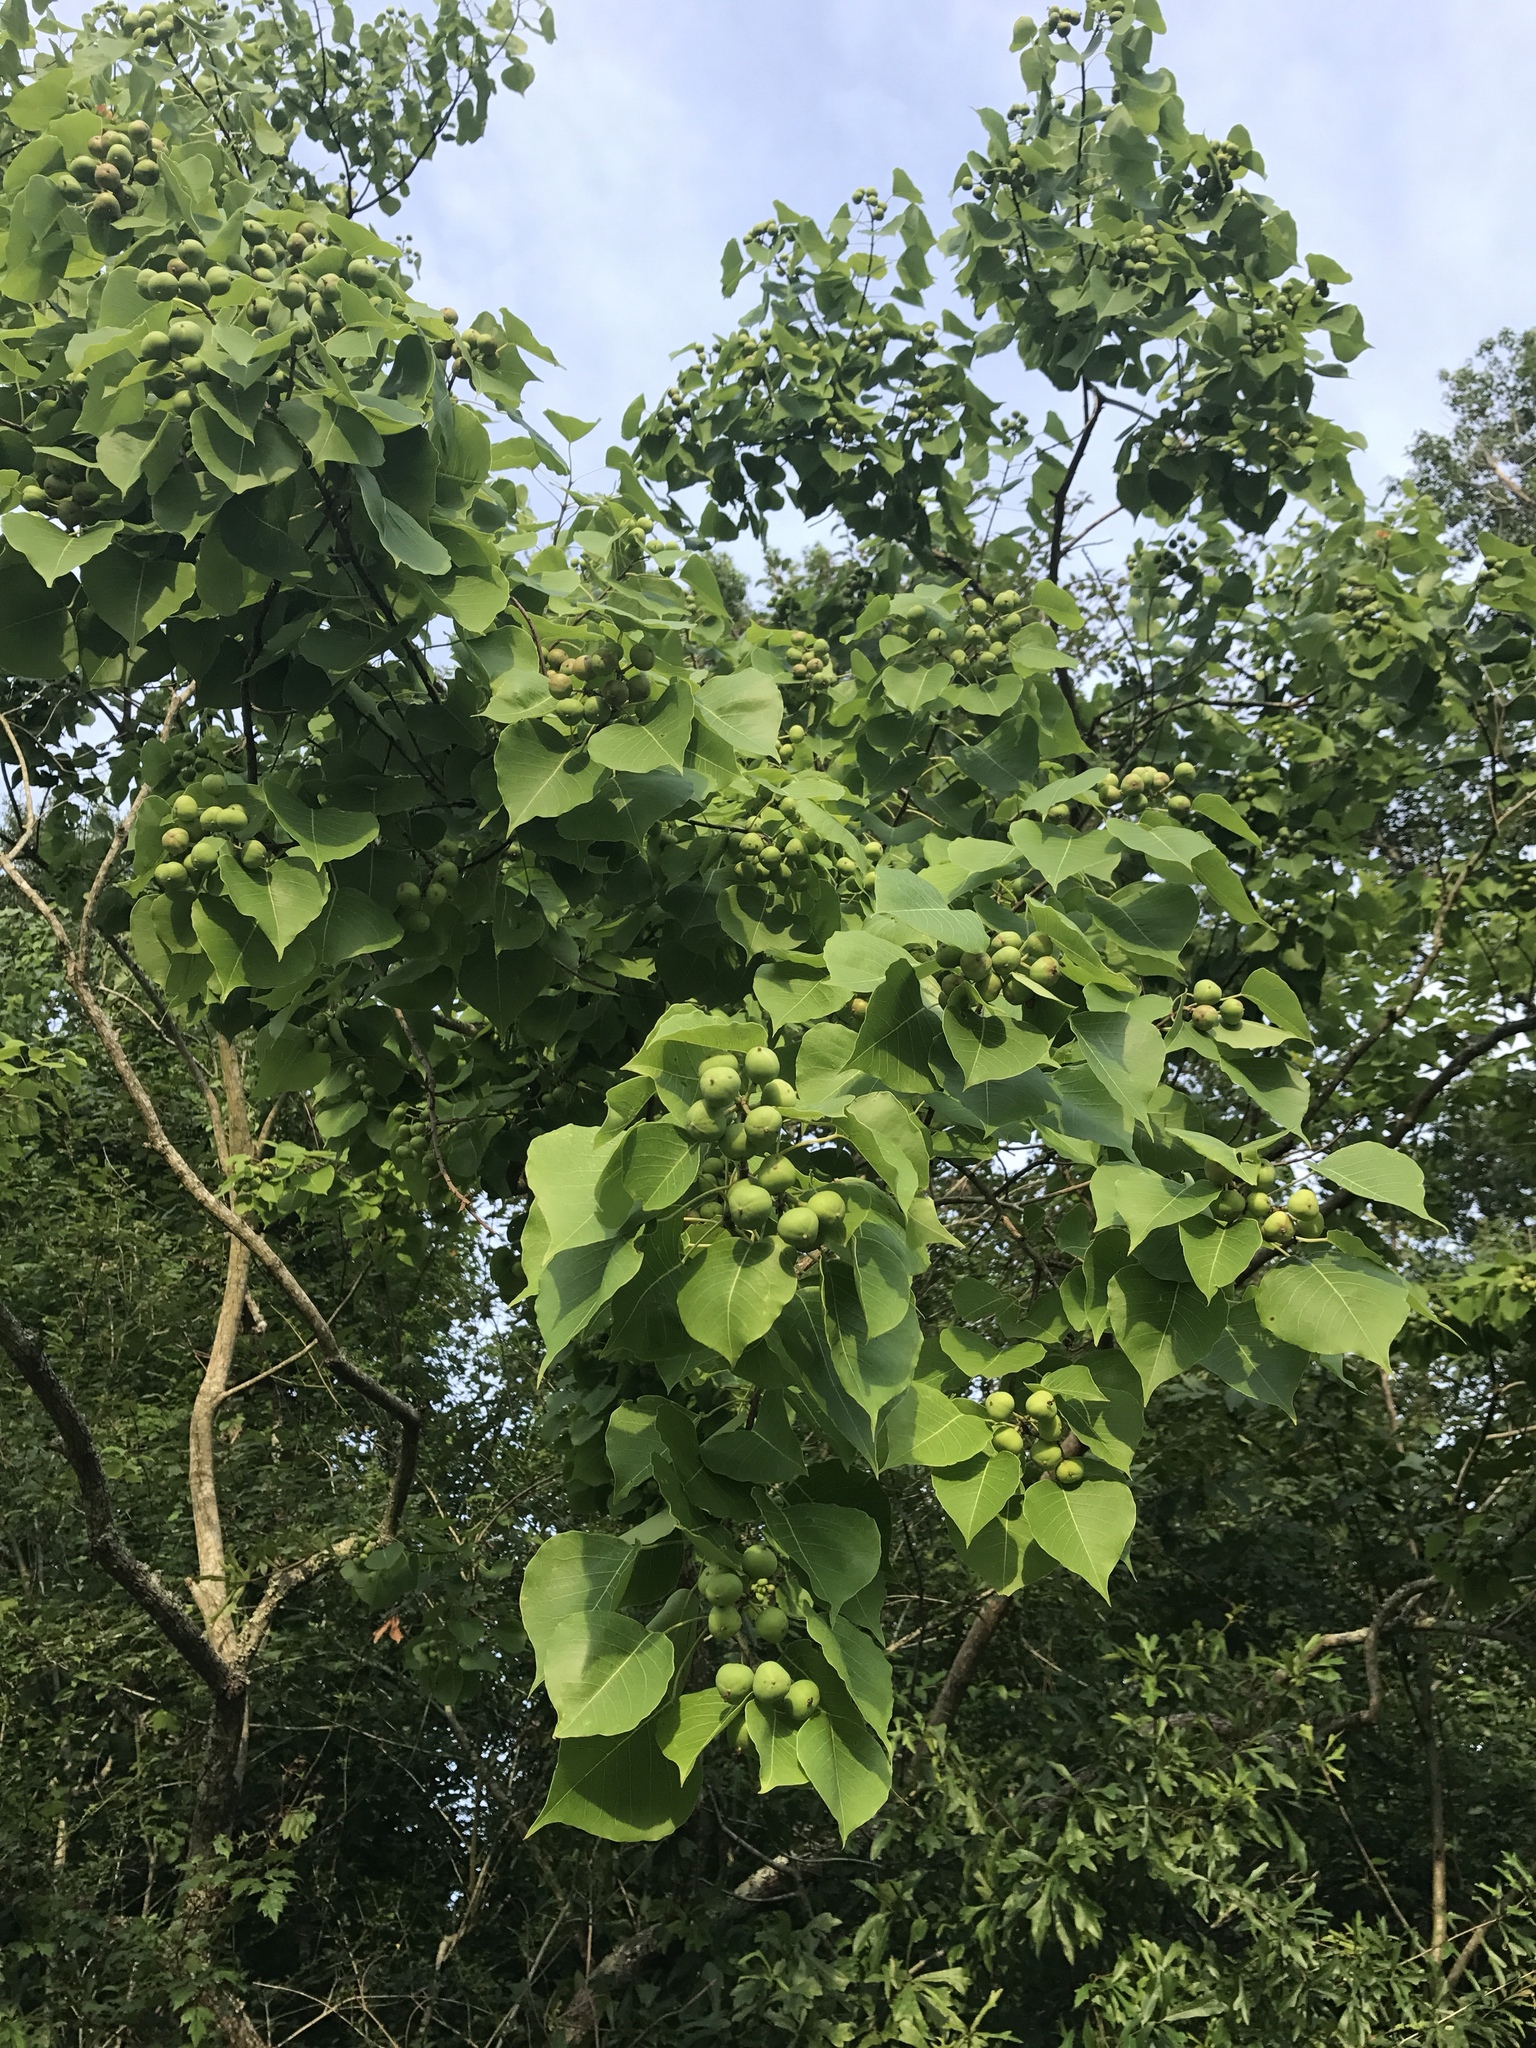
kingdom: Plantae
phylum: Tracheophyta
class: Magnoliopsida
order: Malpighiales
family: Euphorbiaceae
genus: Triadica
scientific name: Triadica sebifera
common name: Chinese tallow
